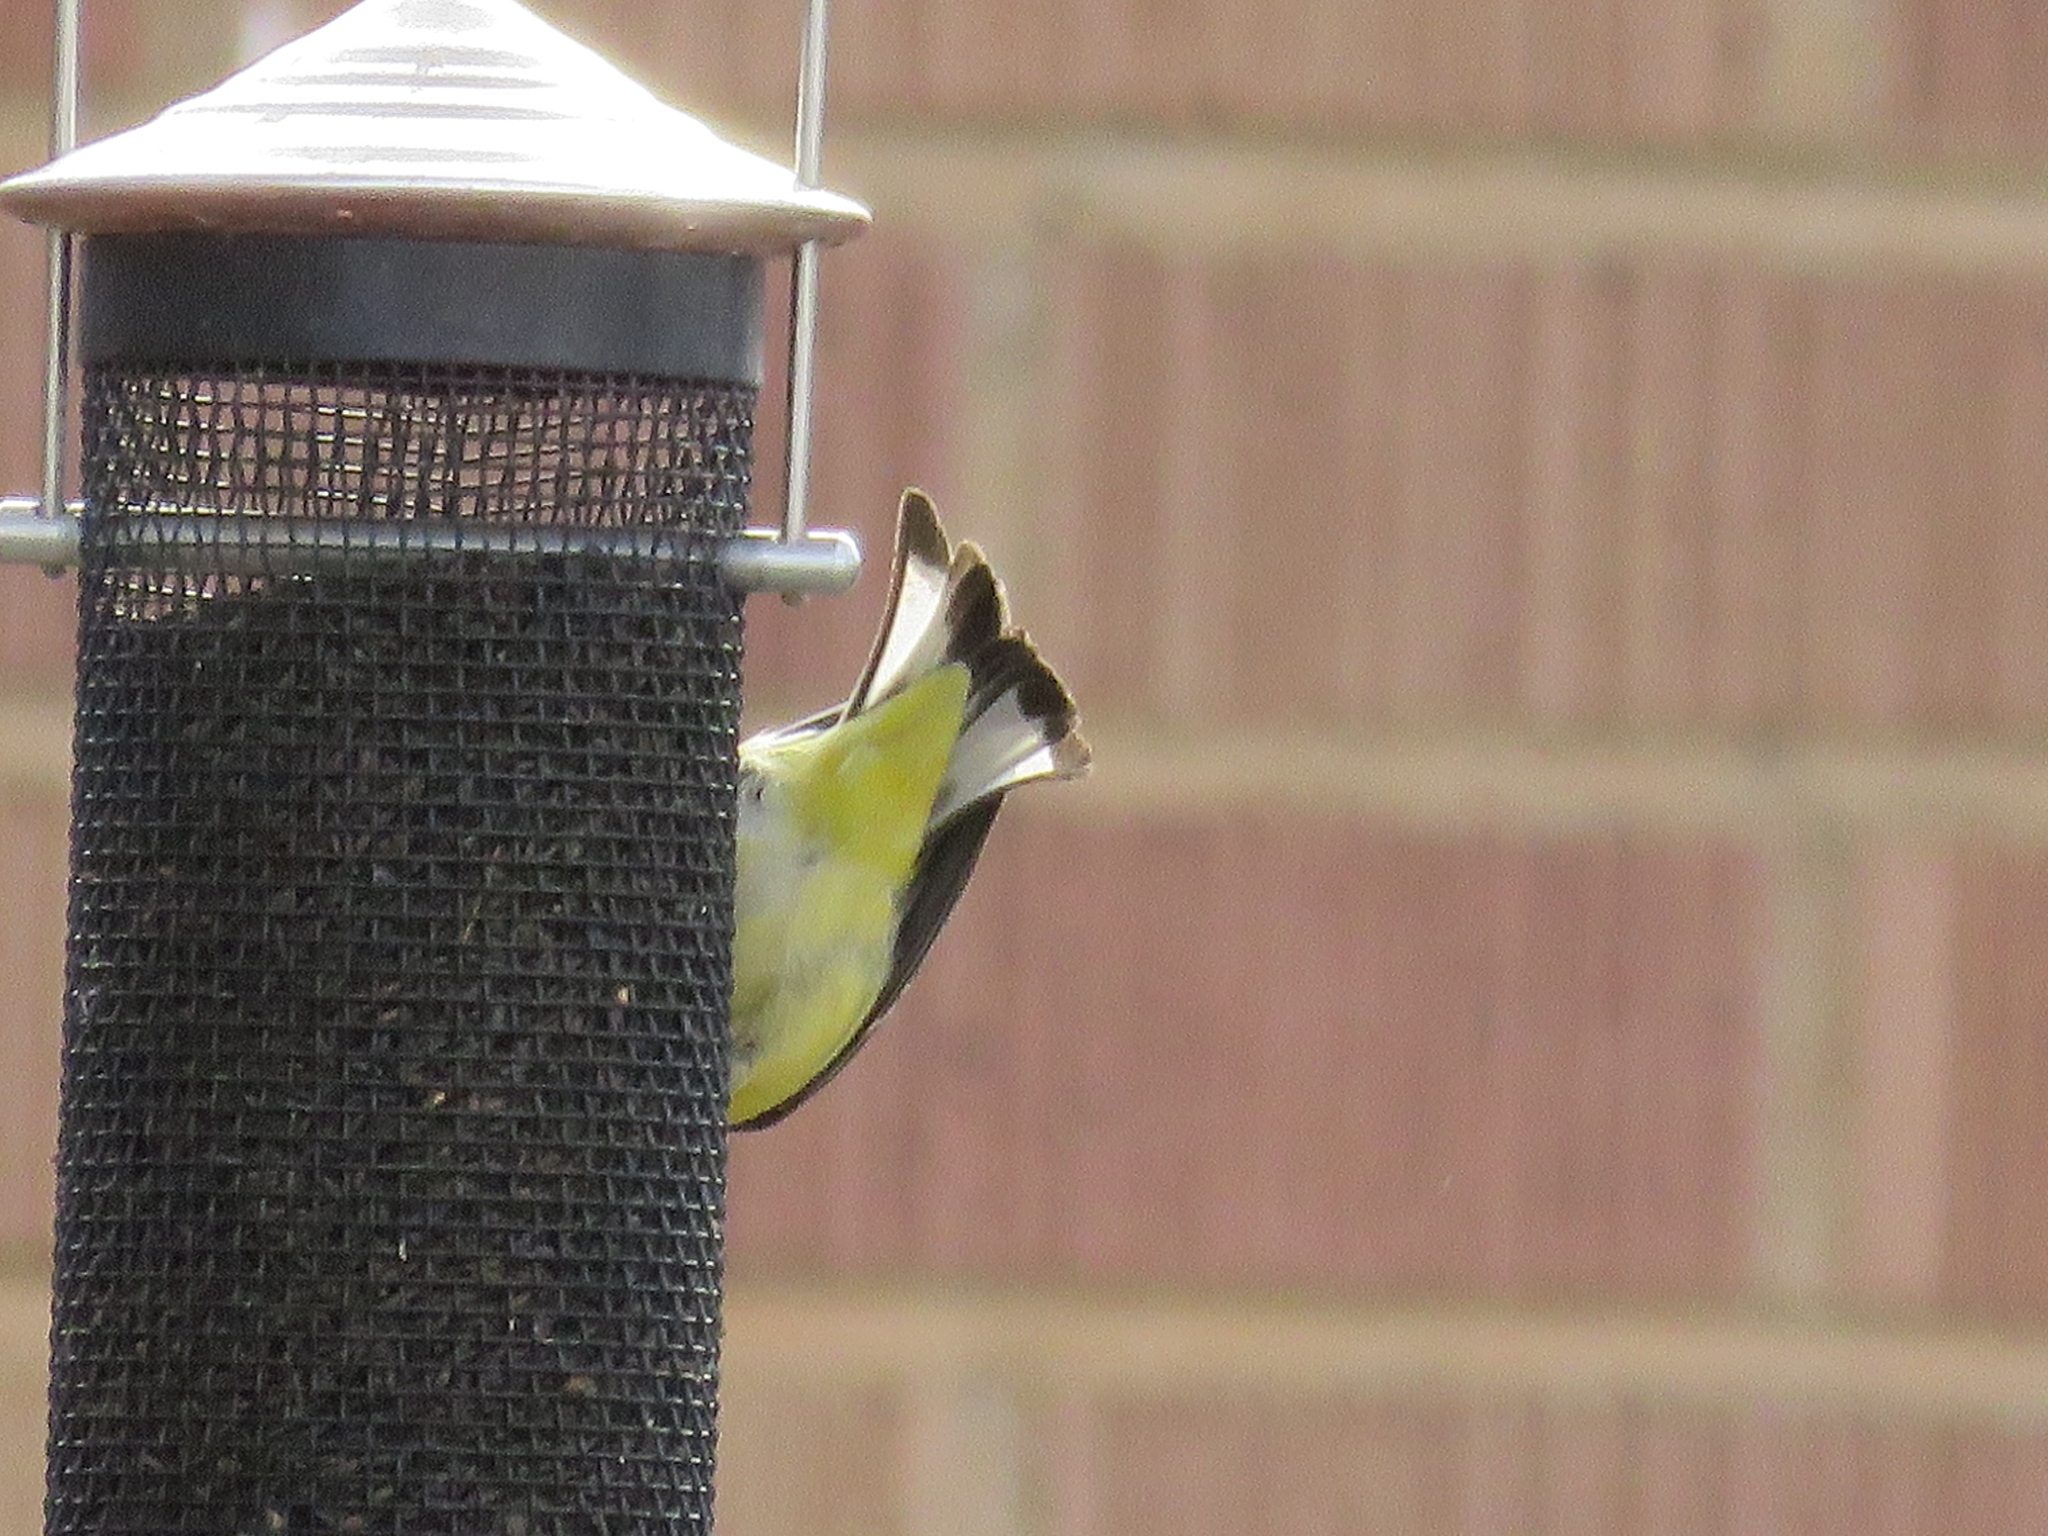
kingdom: Animalia
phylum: Chordata
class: Aves
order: Passeriformes
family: Fringillidae
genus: Spinus
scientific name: Spinus psaltria
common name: Lesser goldfinch
